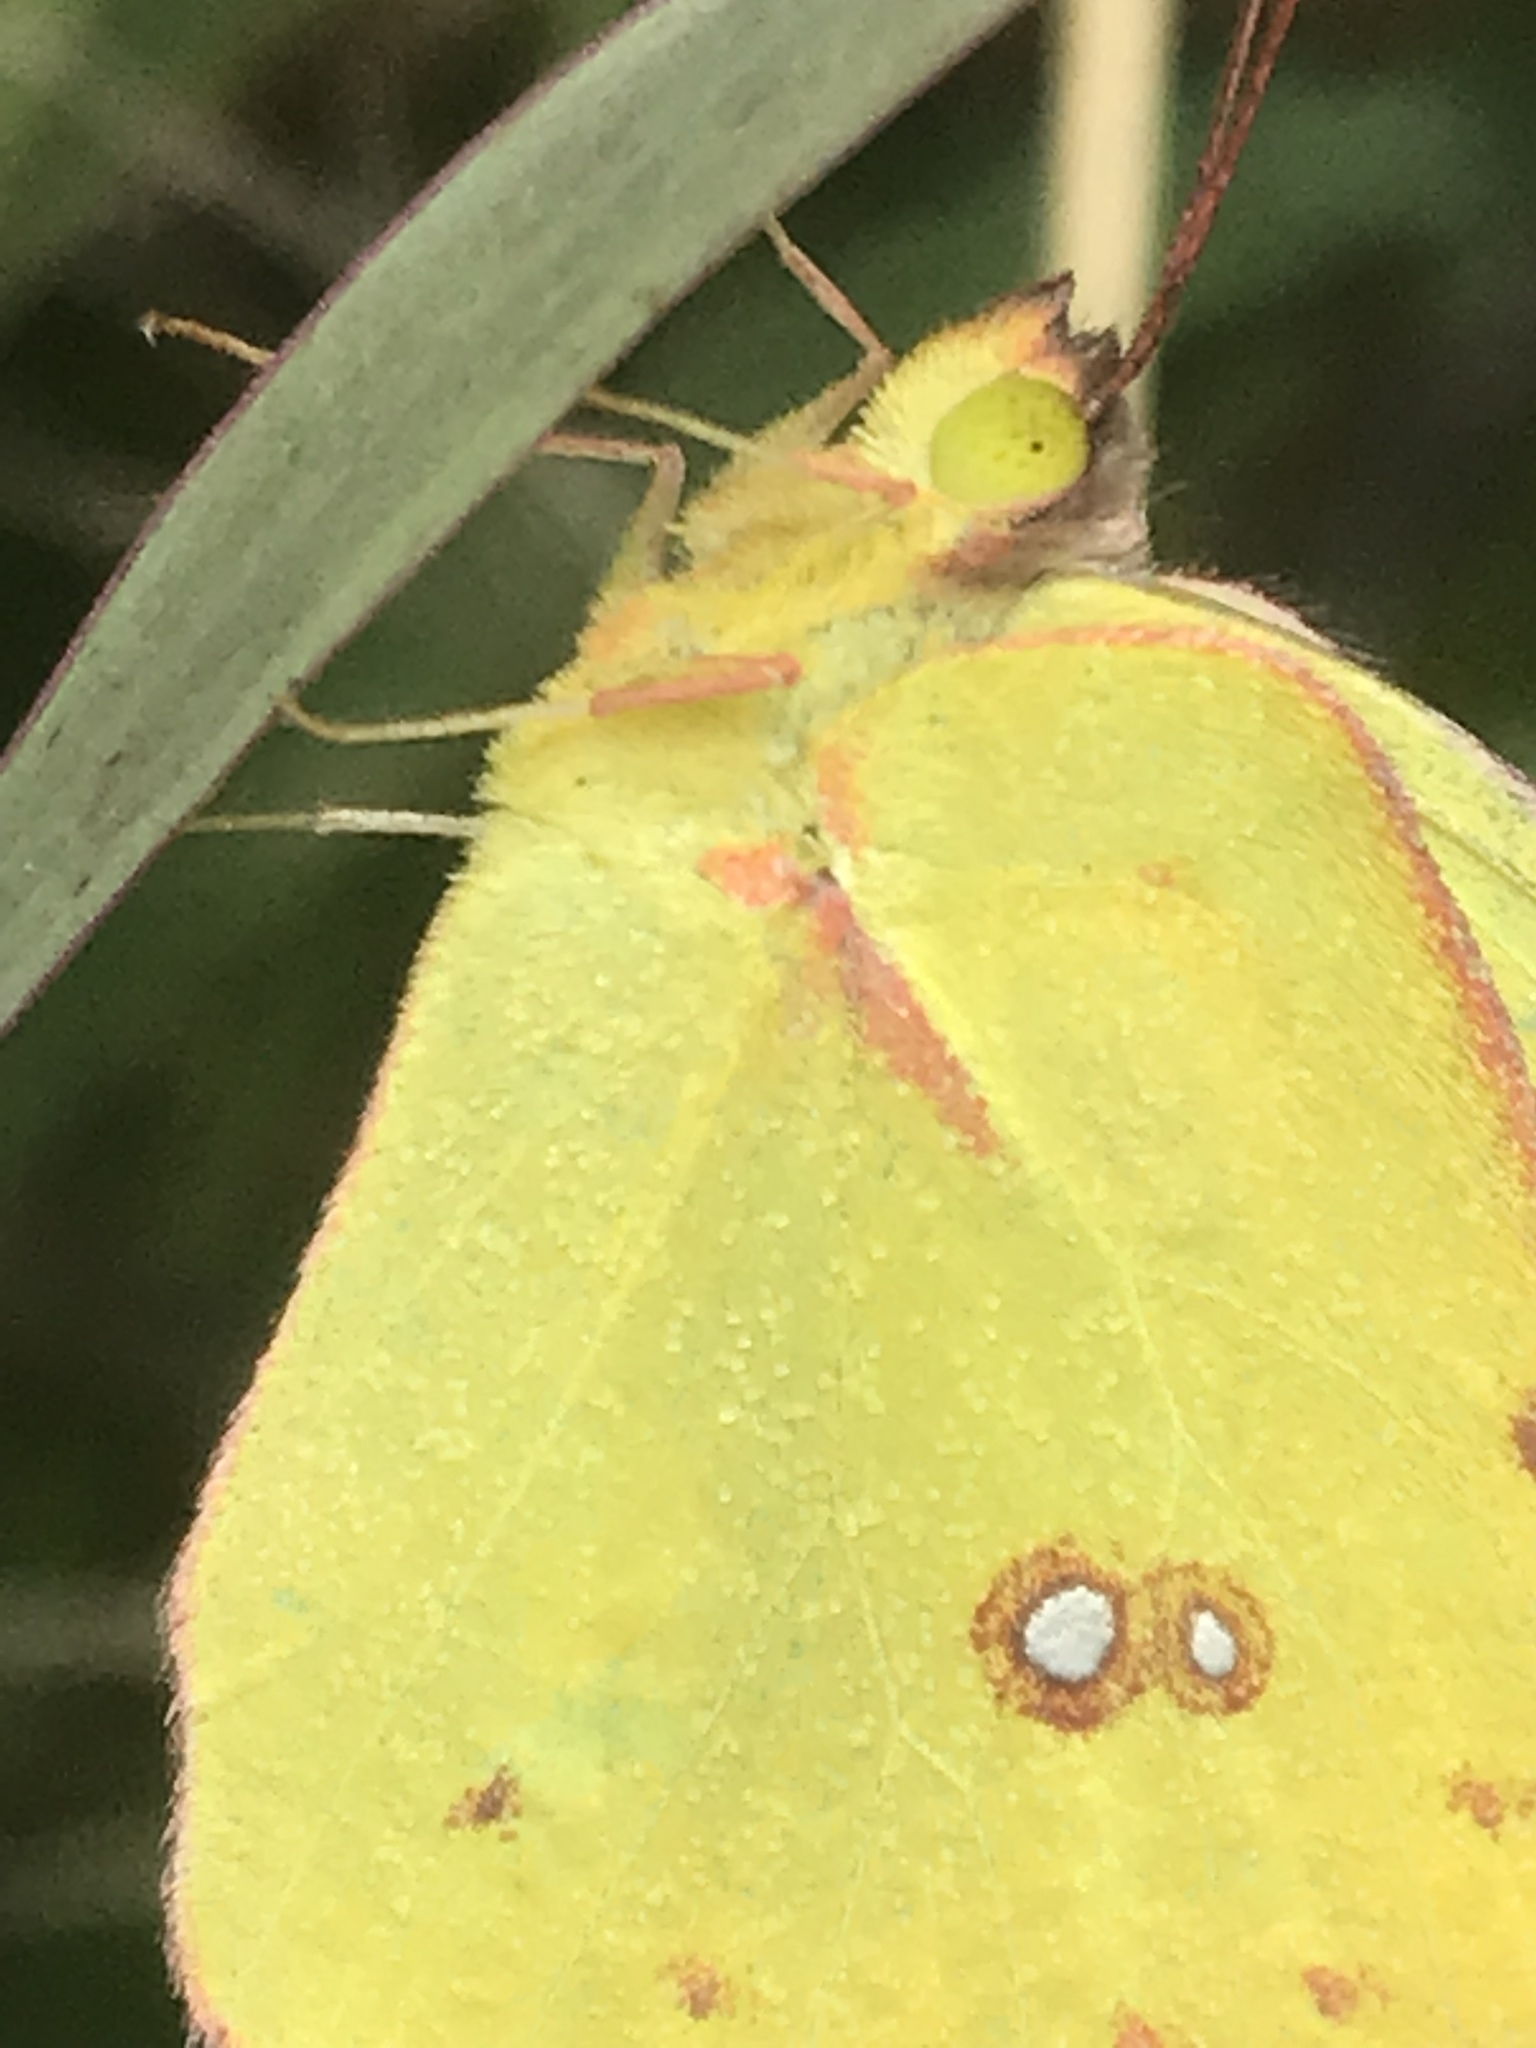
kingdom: Animalia
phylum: Arthropoda
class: Insecta
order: Lepidoptera
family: Pieridae
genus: Zerene
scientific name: Zerene cesonia
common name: Southern dogface
